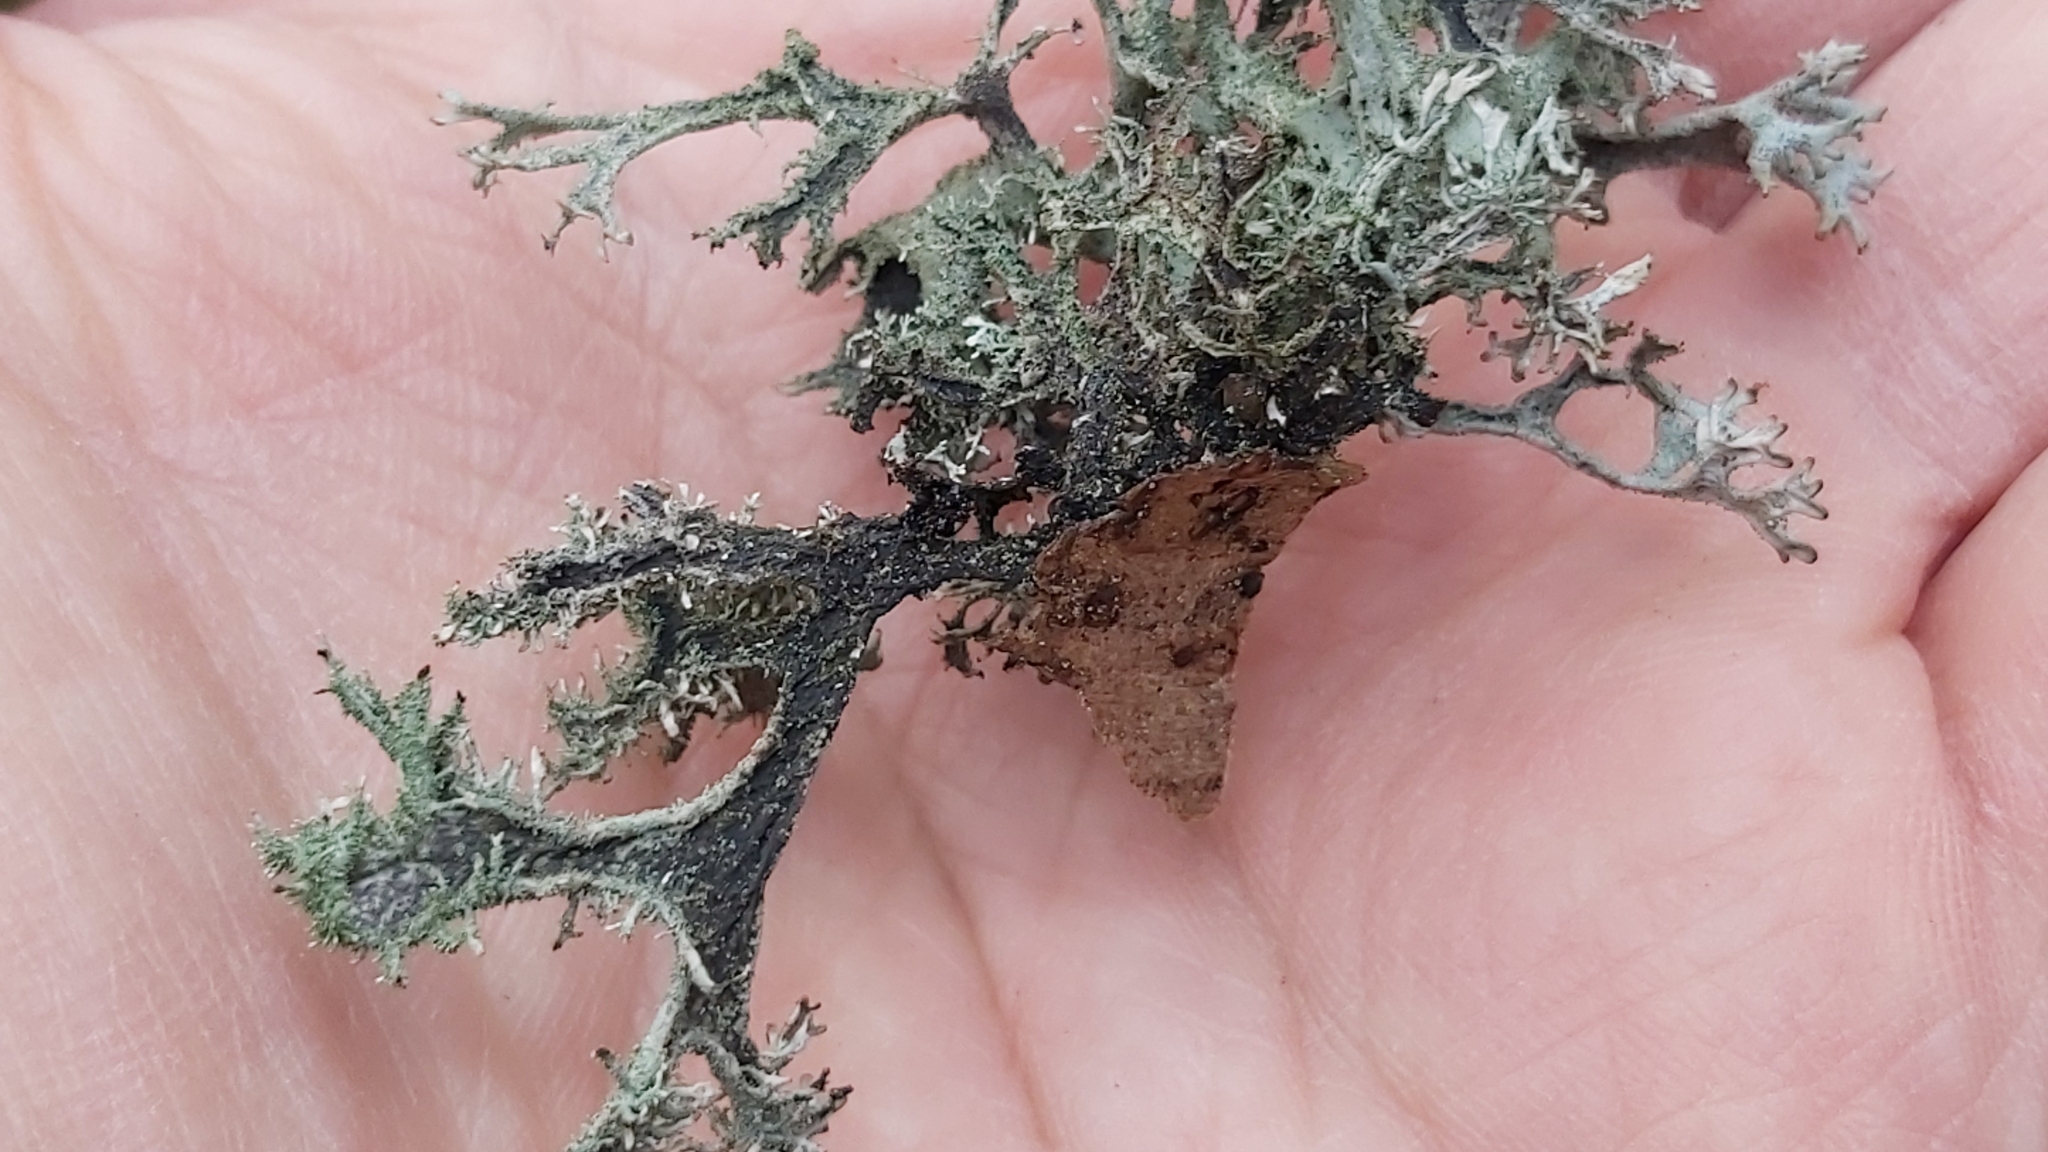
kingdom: Fungi
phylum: Ascomycota
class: Lecanoromycetes
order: Lecanorales
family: Parmeliaceae
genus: Pseudevernia
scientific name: Pseudevernia furfuracea
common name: Tree moss
